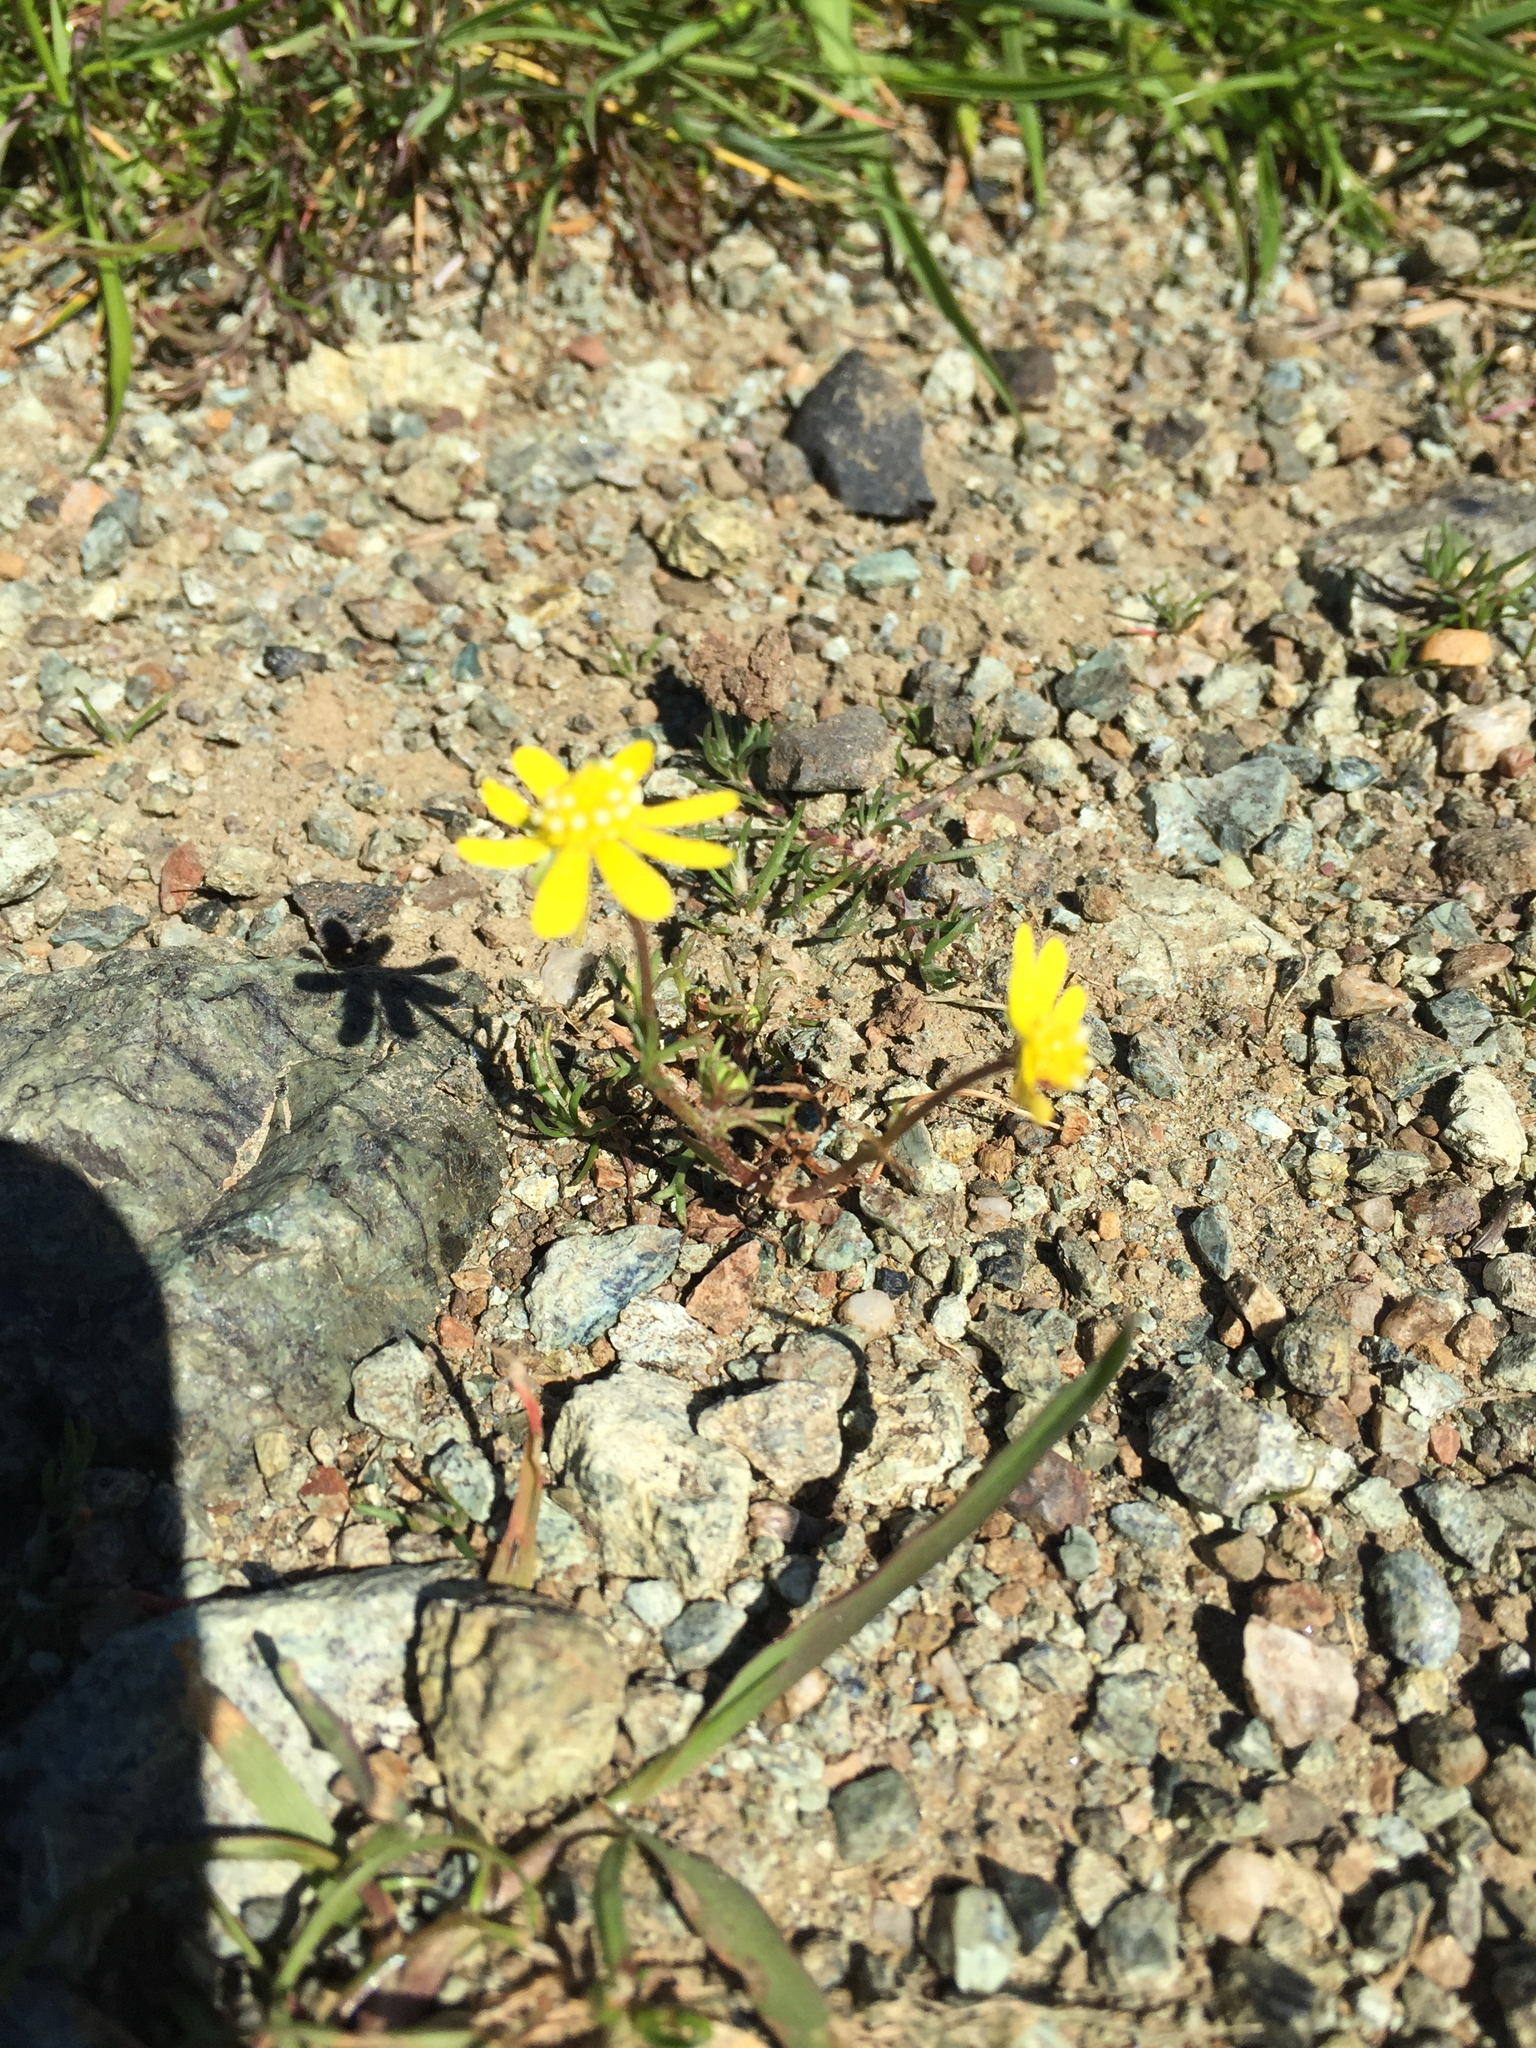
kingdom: Plantae
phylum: Tracheophyta
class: Magnoliopsida
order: Asterales
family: Asteraceae
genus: Blennosperma
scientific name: Blennosperma nanum
